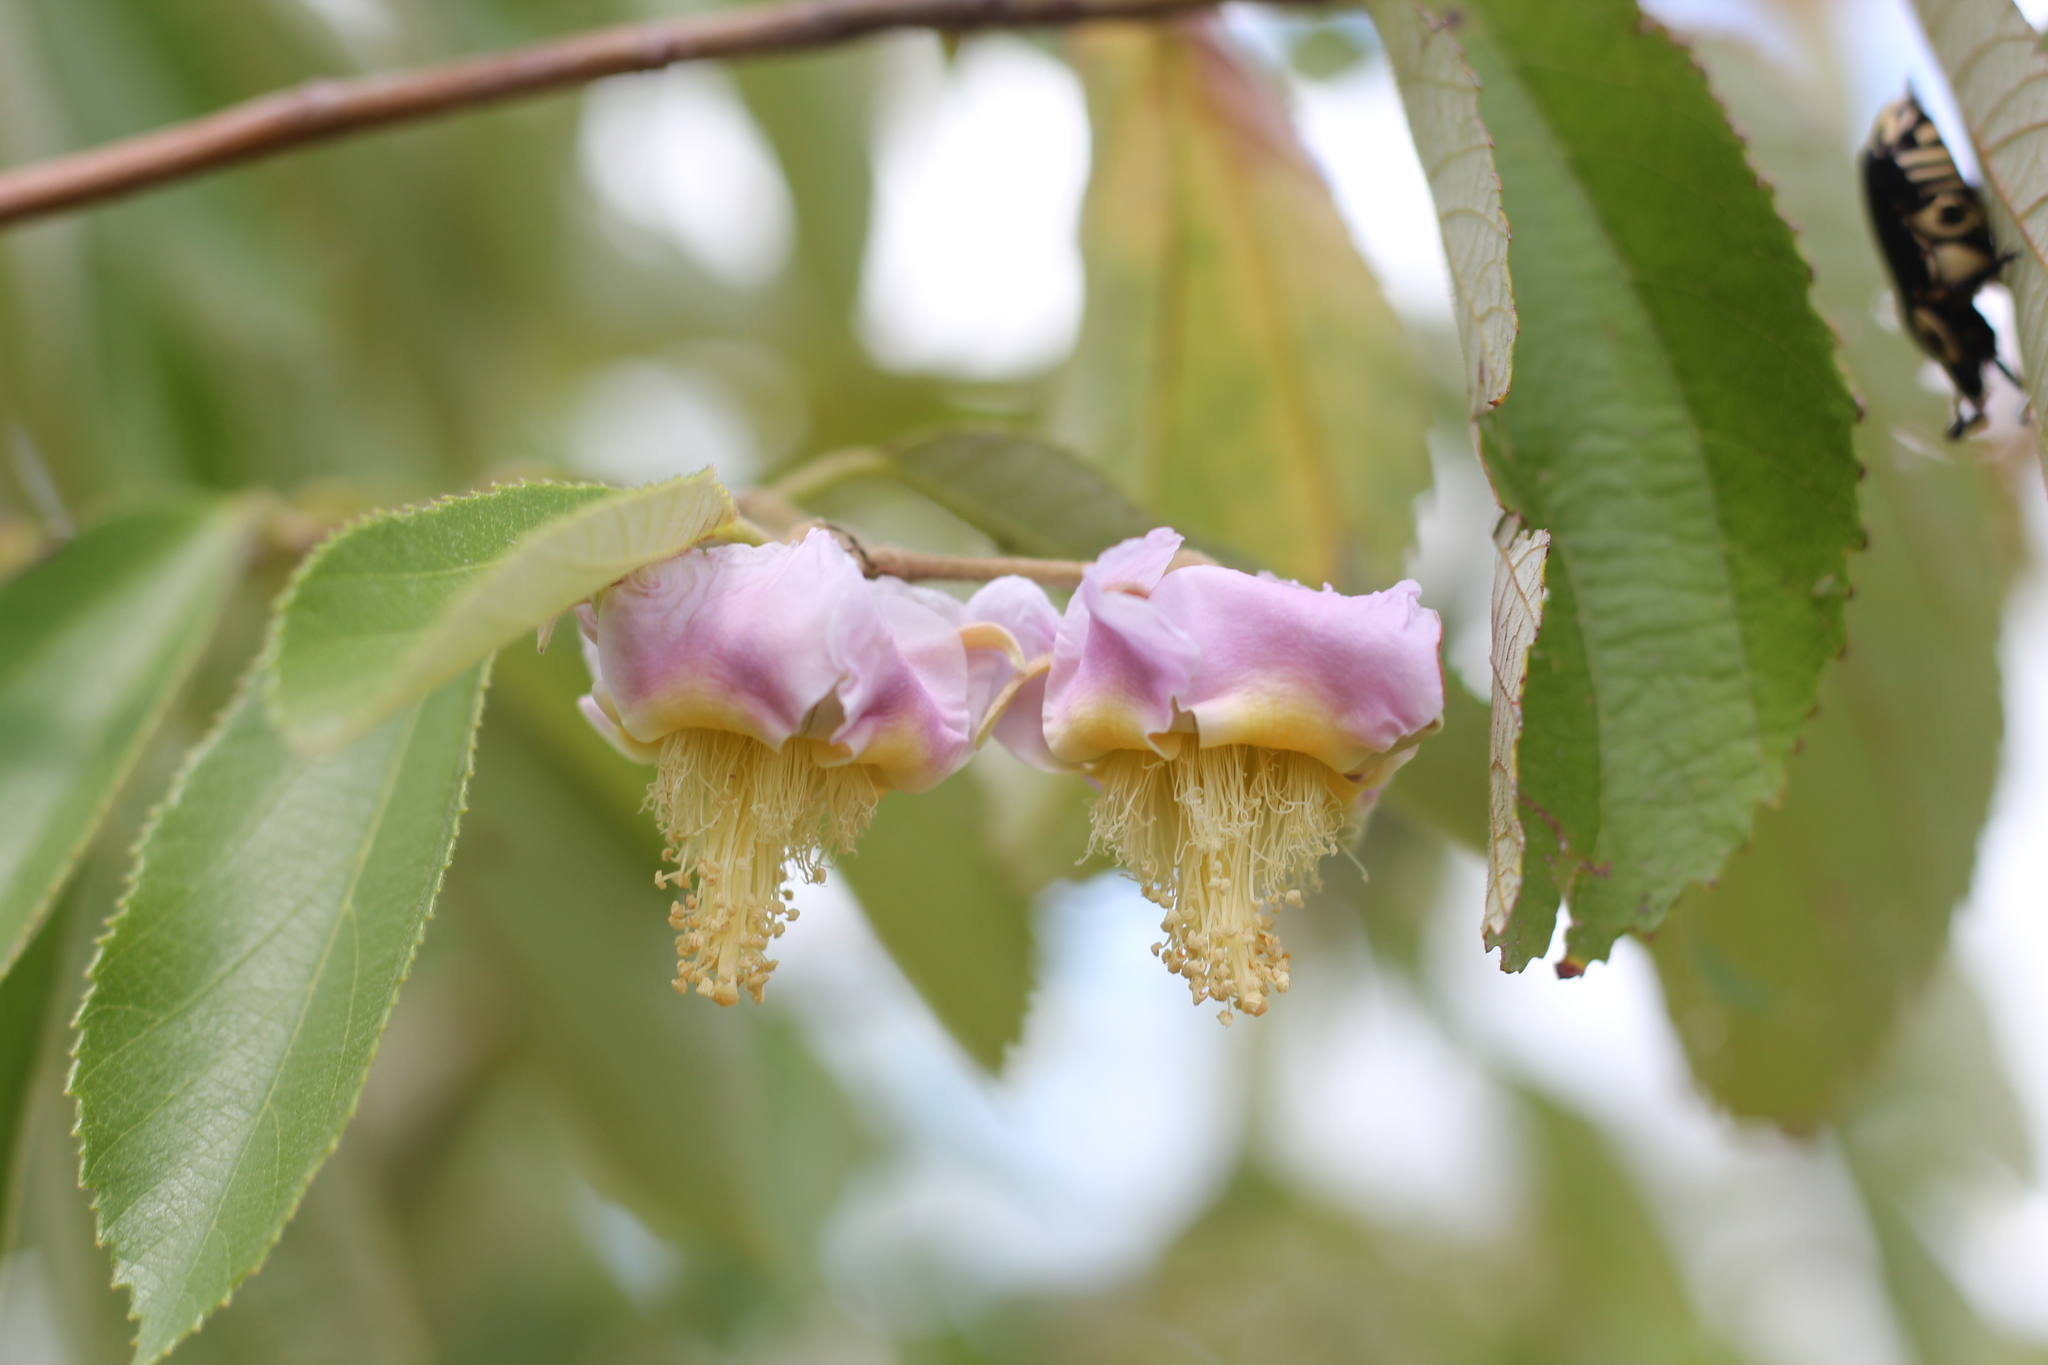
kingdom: Plantae
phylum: Tracheophyta
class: Magnoliopsida
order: Malvales
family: Malvaceae
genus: Luehea
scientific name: Luehea divaricata
